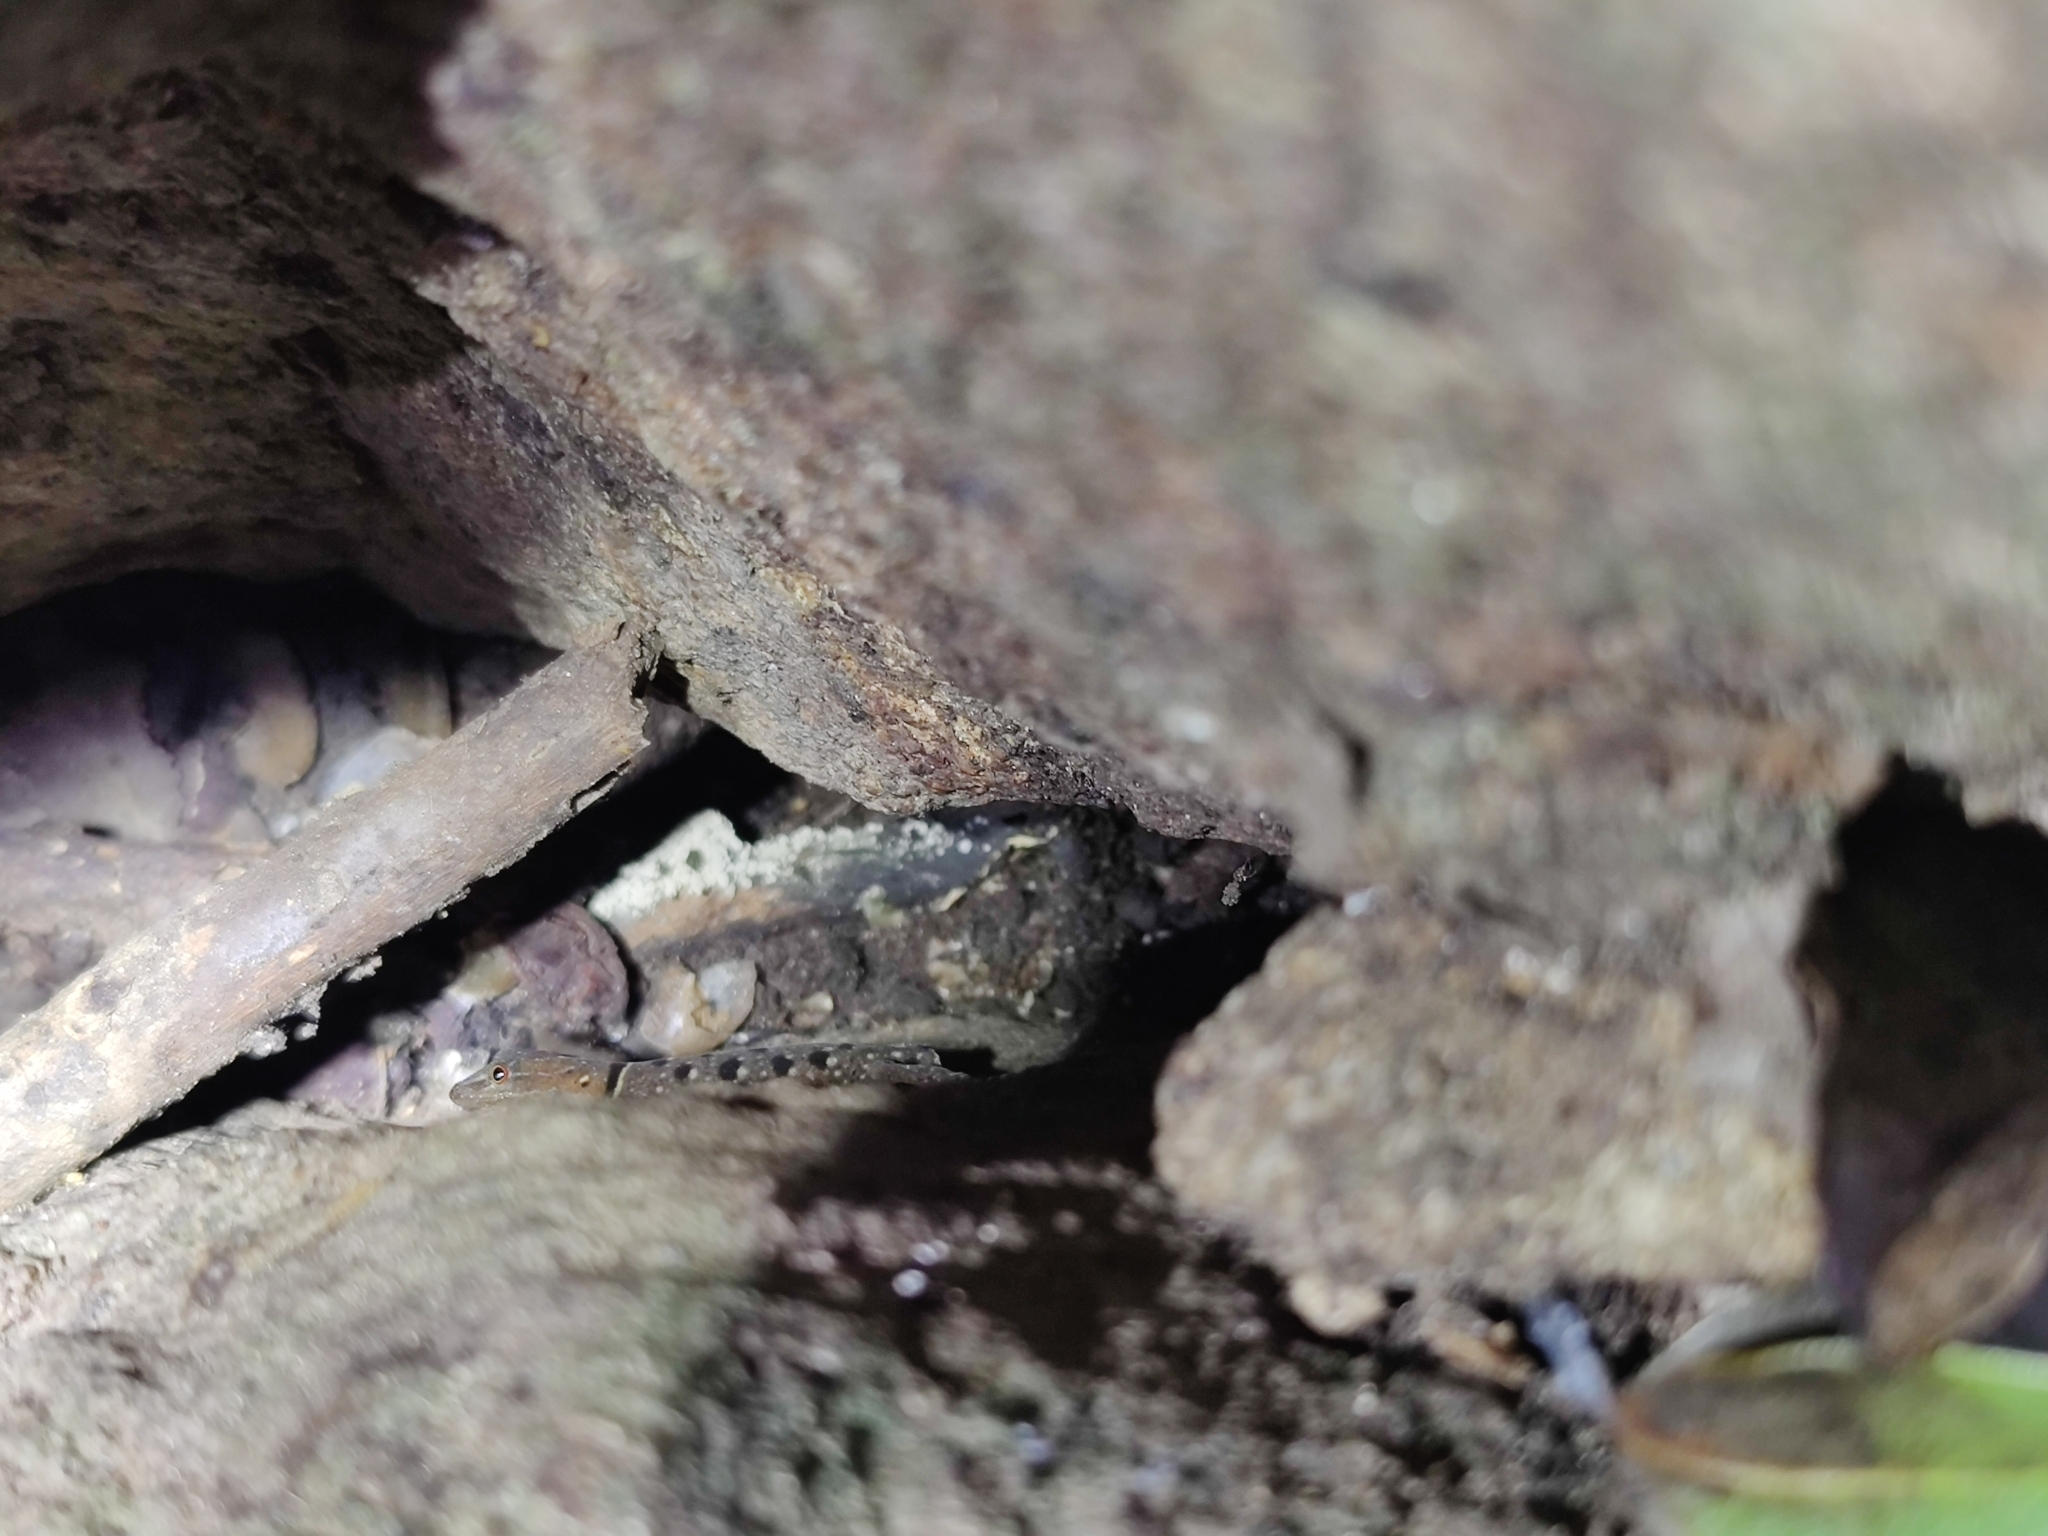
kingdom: Animalia
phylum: Chordata
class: Squamata
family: Gekkonidae
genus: Cnemaspis
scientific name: Cnemaspis azhagu
